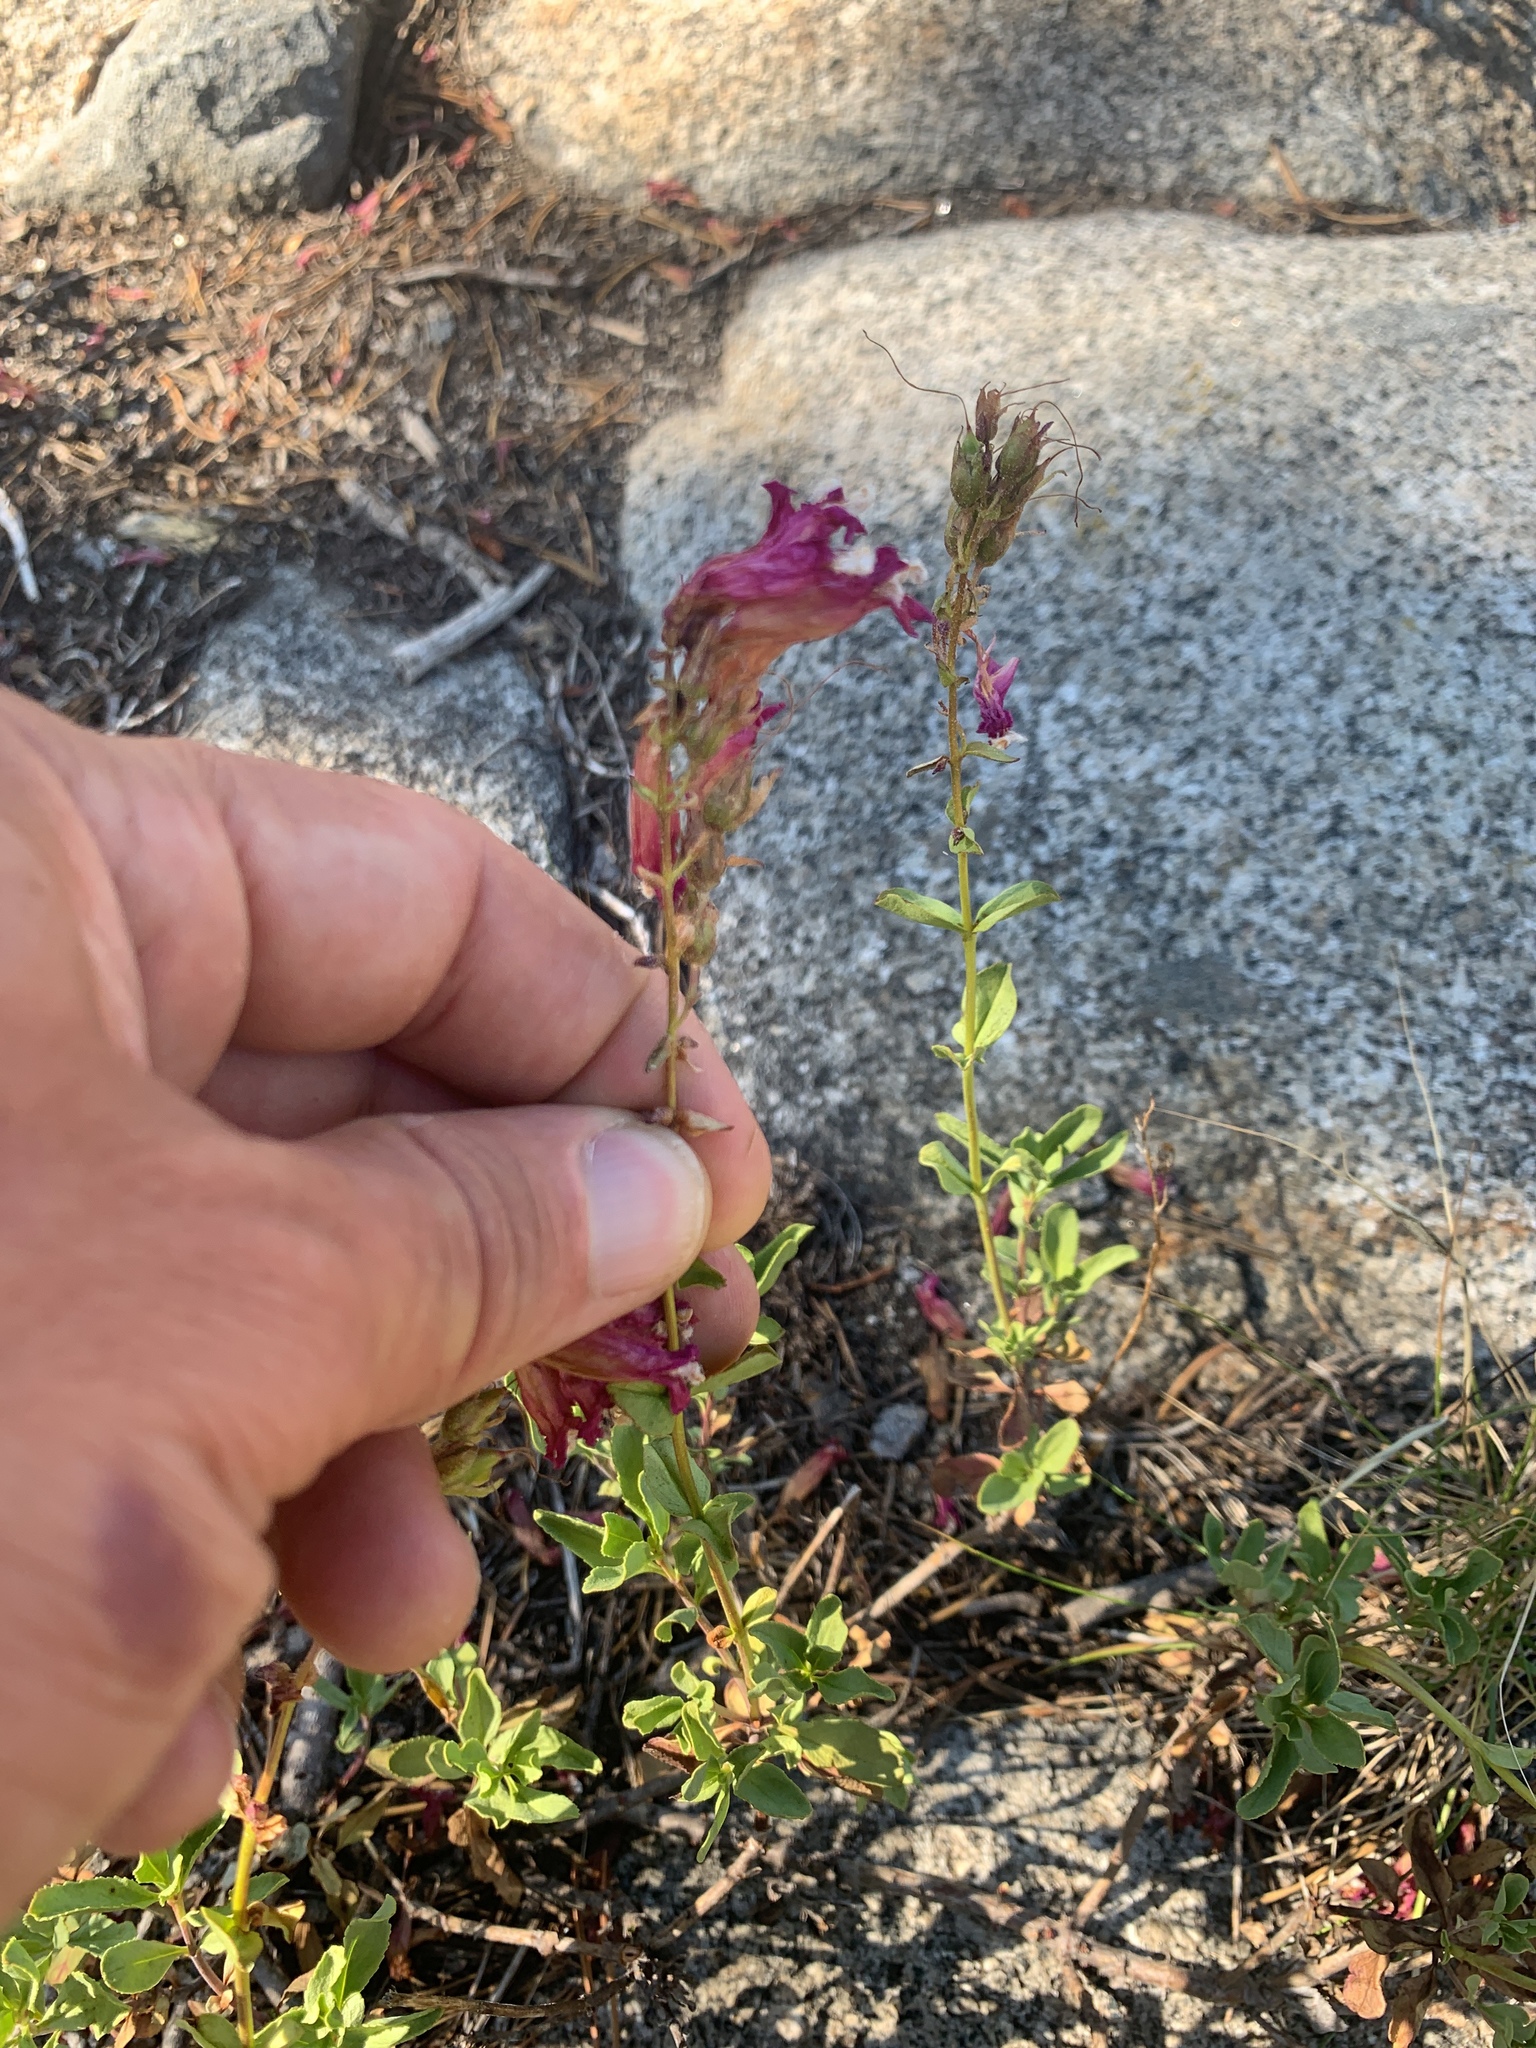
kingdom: Plantae
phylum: Tracheophyta
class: Magnoliopsida
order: Lamiales
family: Plantaginaceae
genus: Penstemon
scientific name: Penstemon newberryi
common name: Mountain-pride
